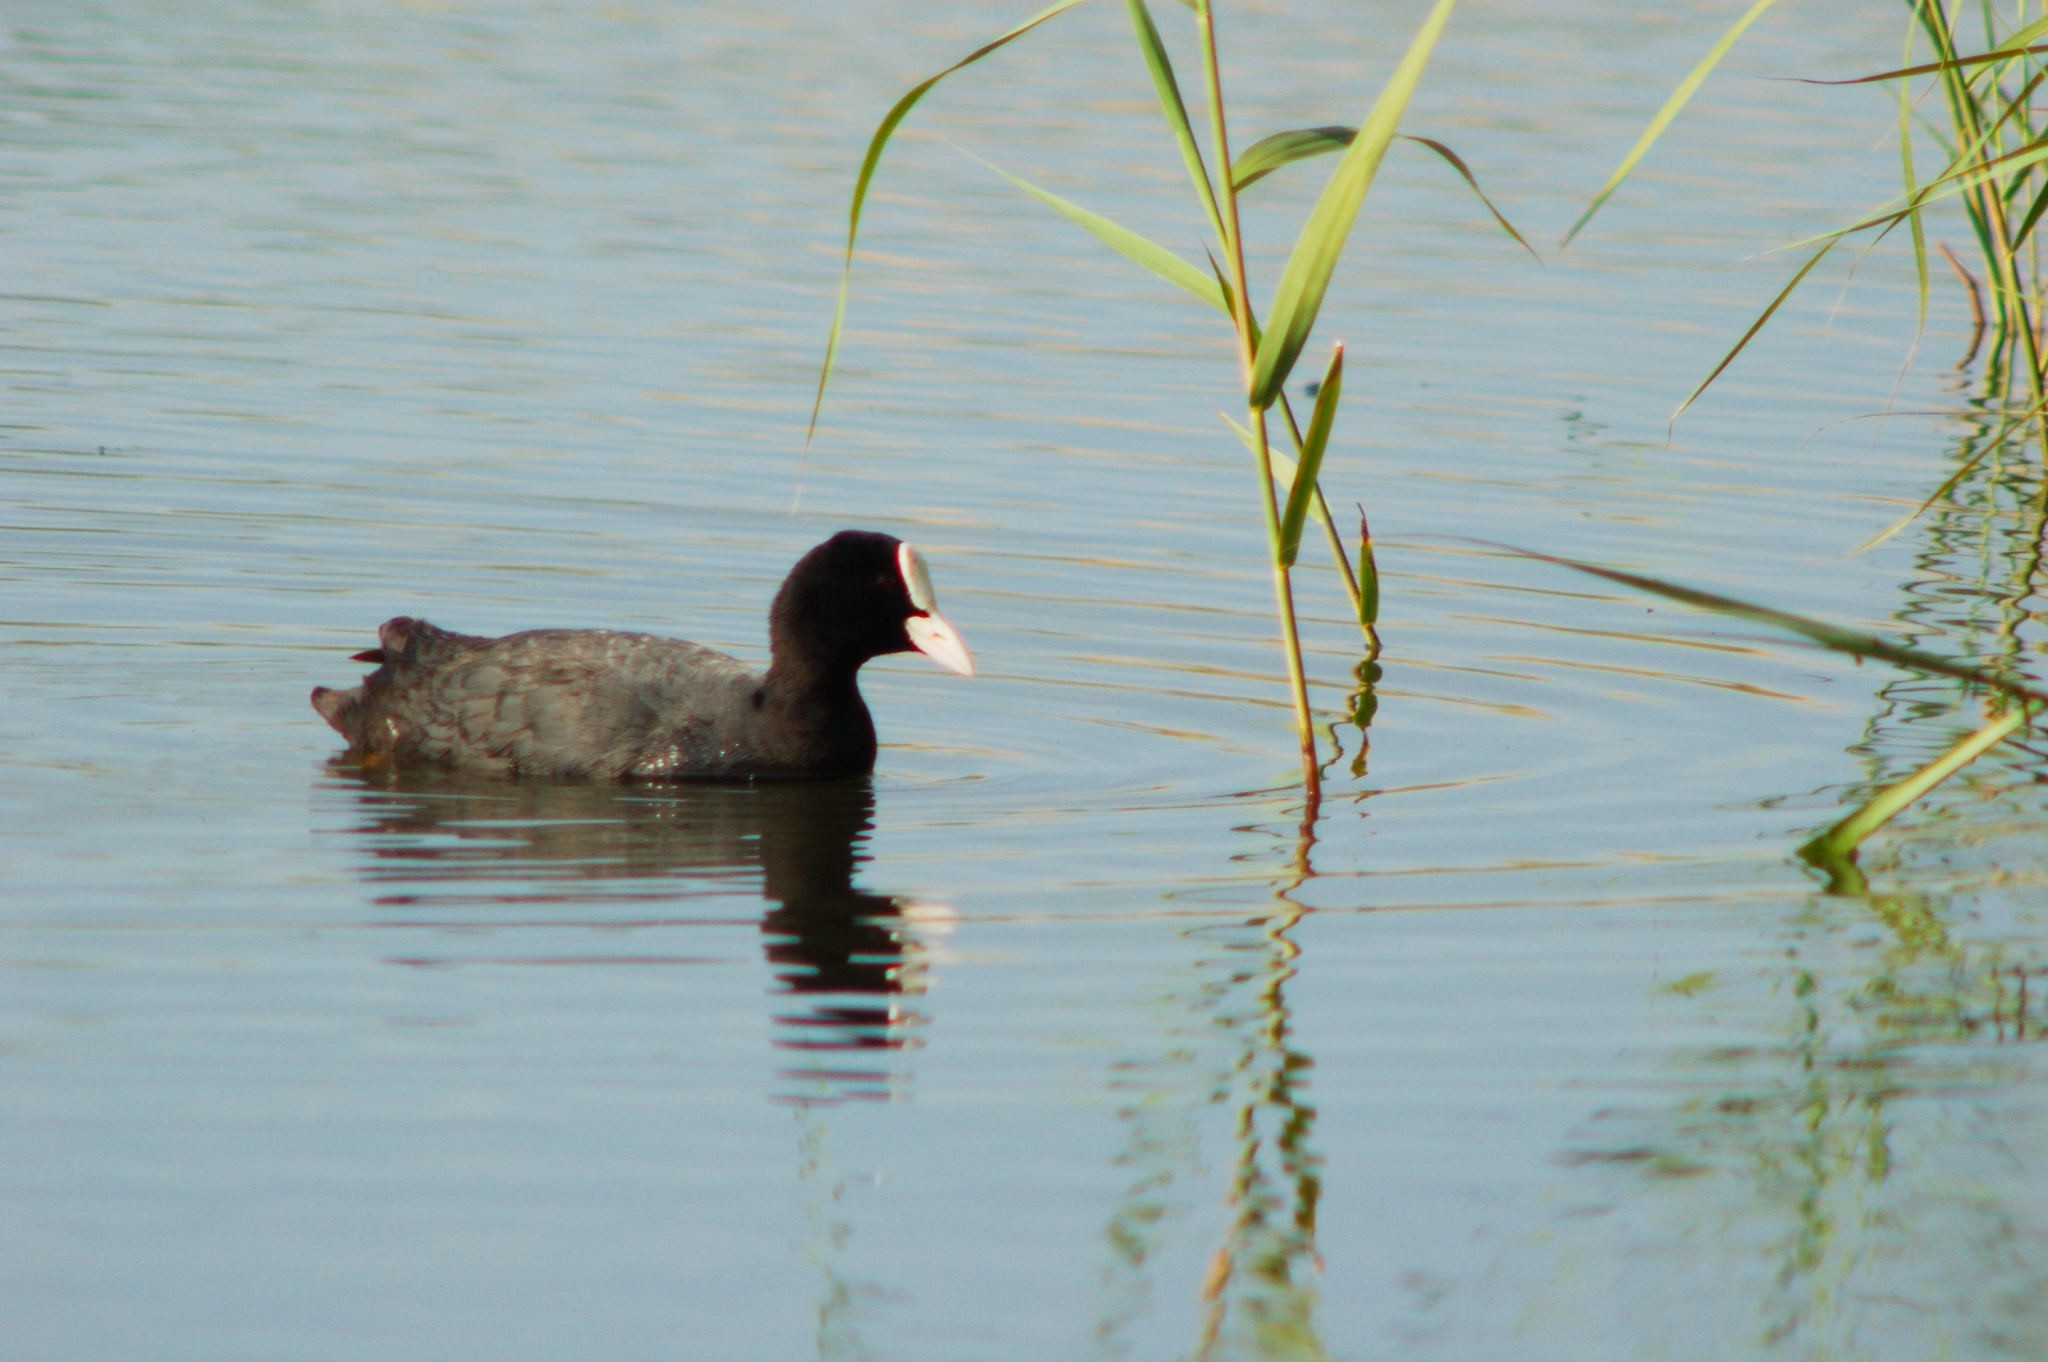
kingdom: Animalia
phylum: Chordata
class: Aves
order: Gruiformes
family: Rallidae
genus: Fulica
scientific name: Fulica atra
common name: Eurasian coot
